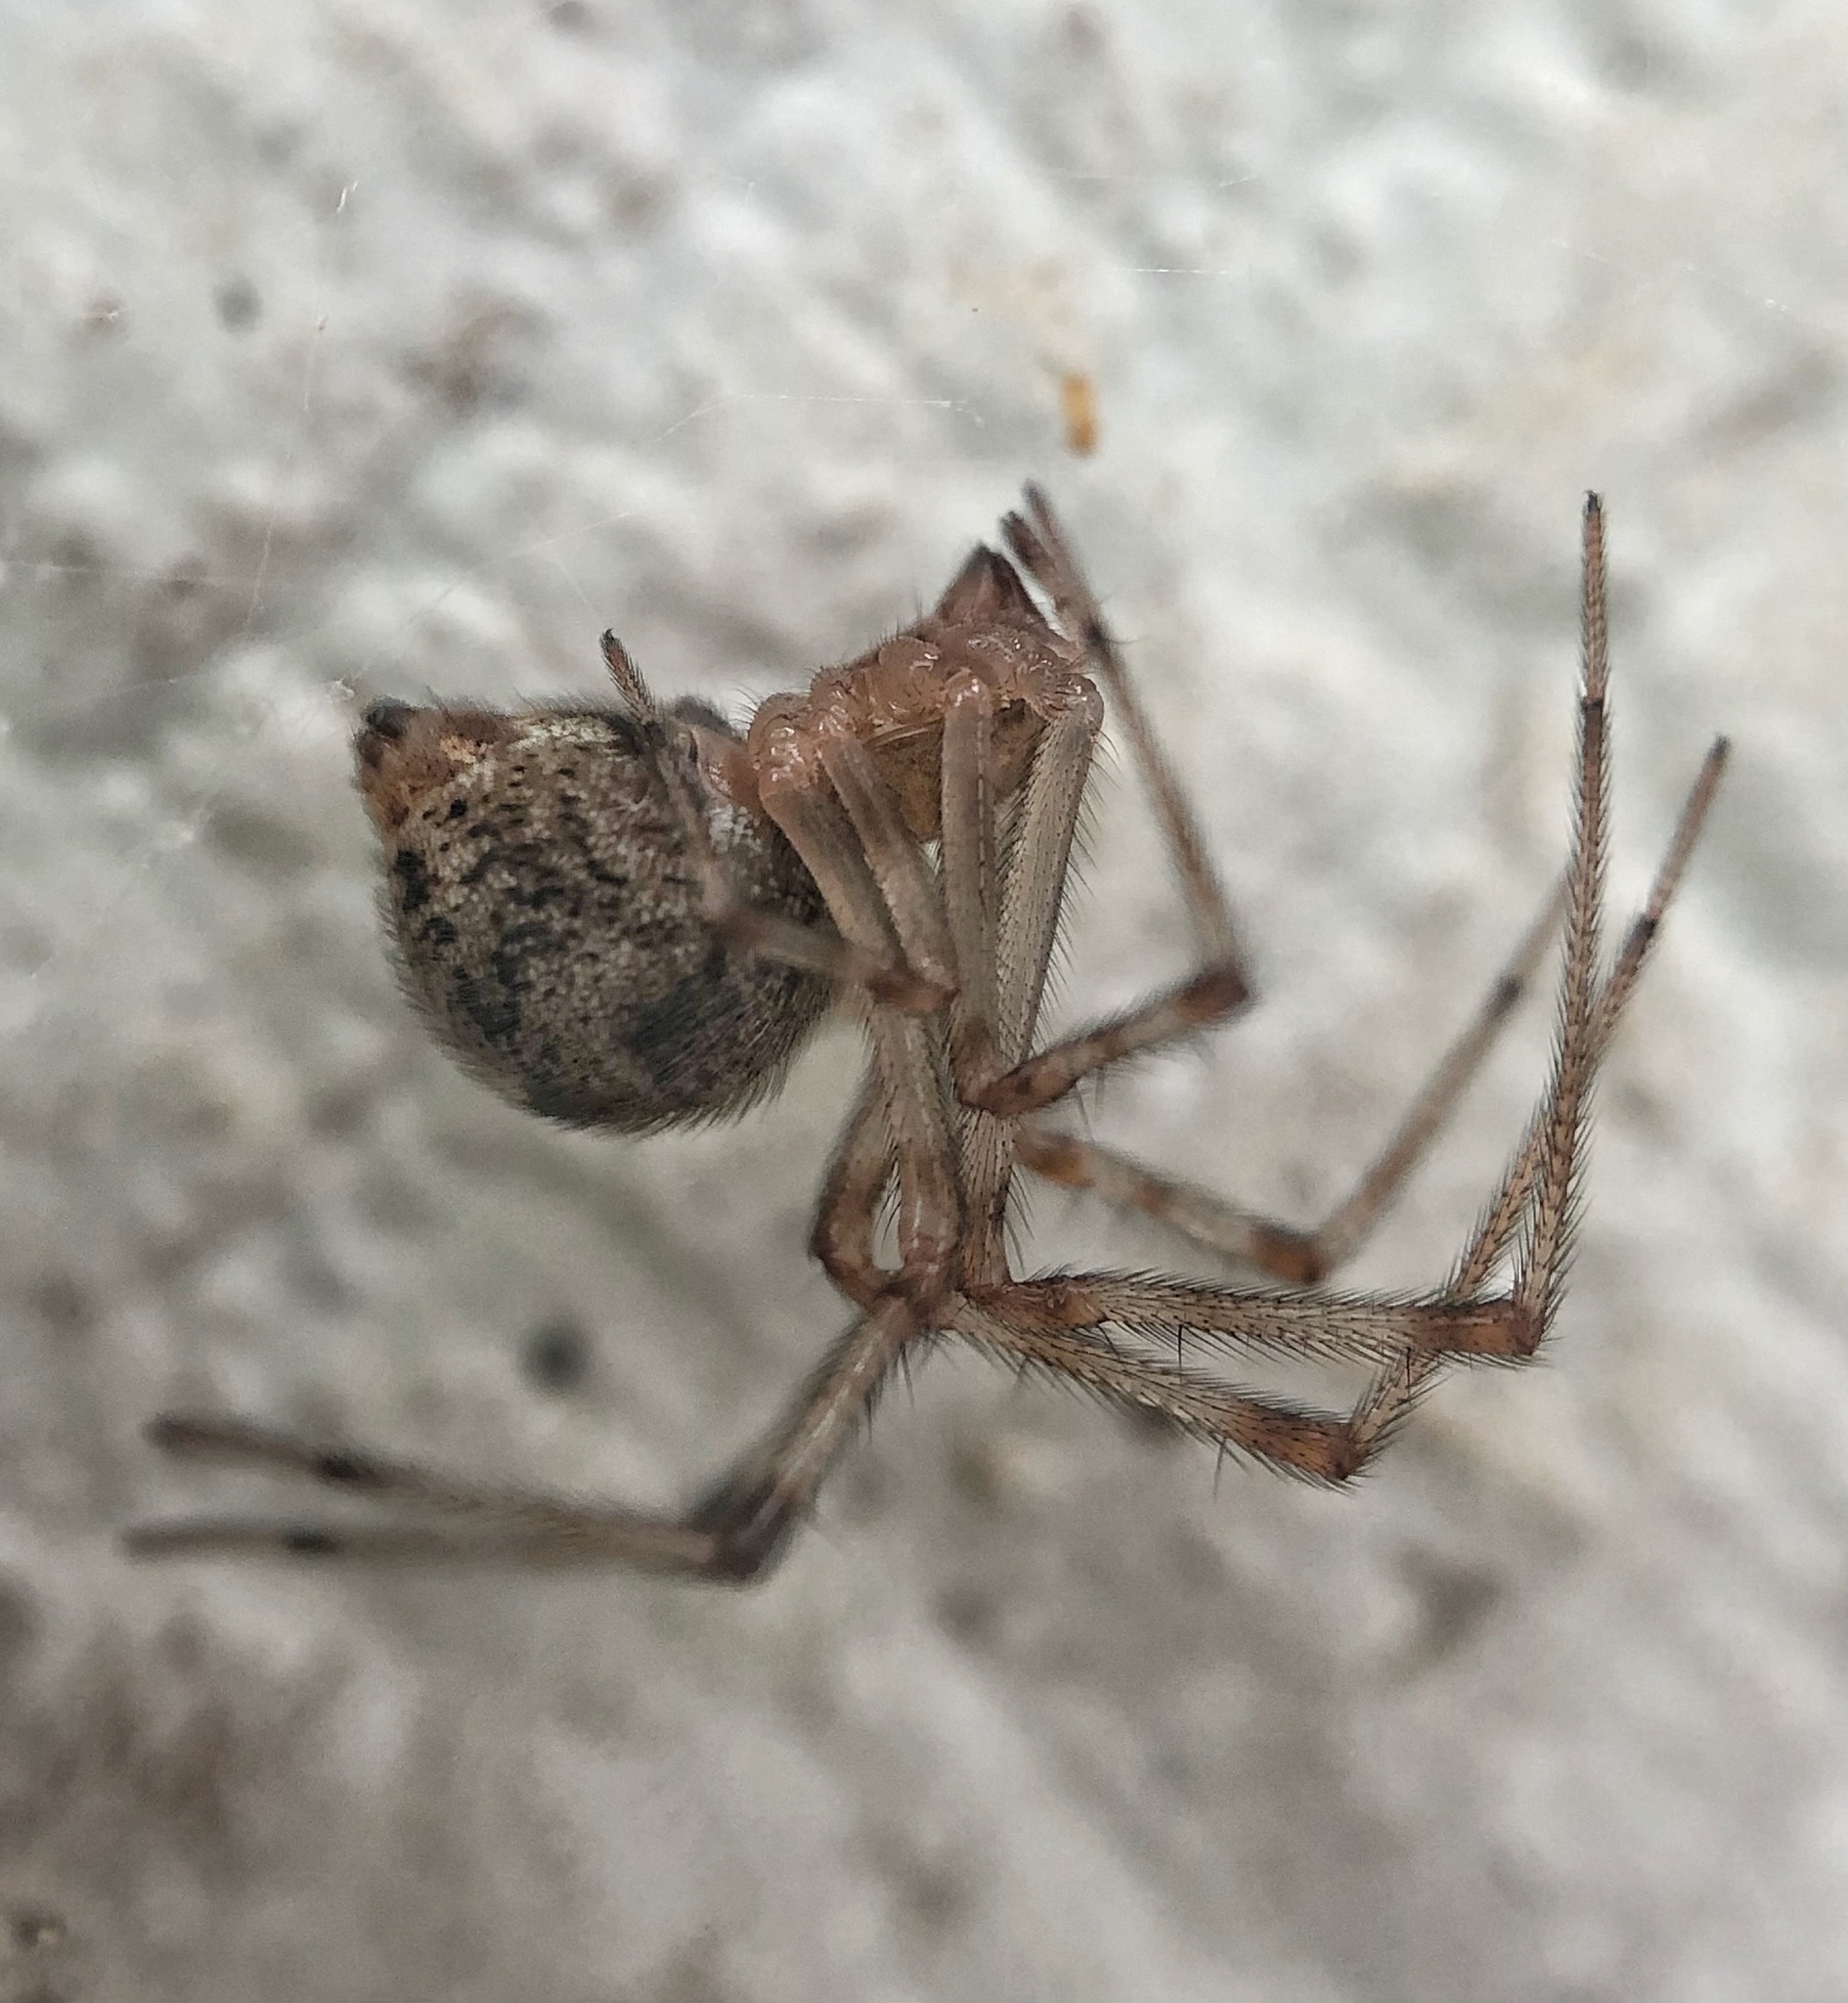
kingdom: Animalia
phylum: Arthropoda
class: Arachnida
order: Araneae
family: Theridiidae
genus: Parasteatoda
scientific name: Parasteatoda tepidariorum
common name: Common house spider
